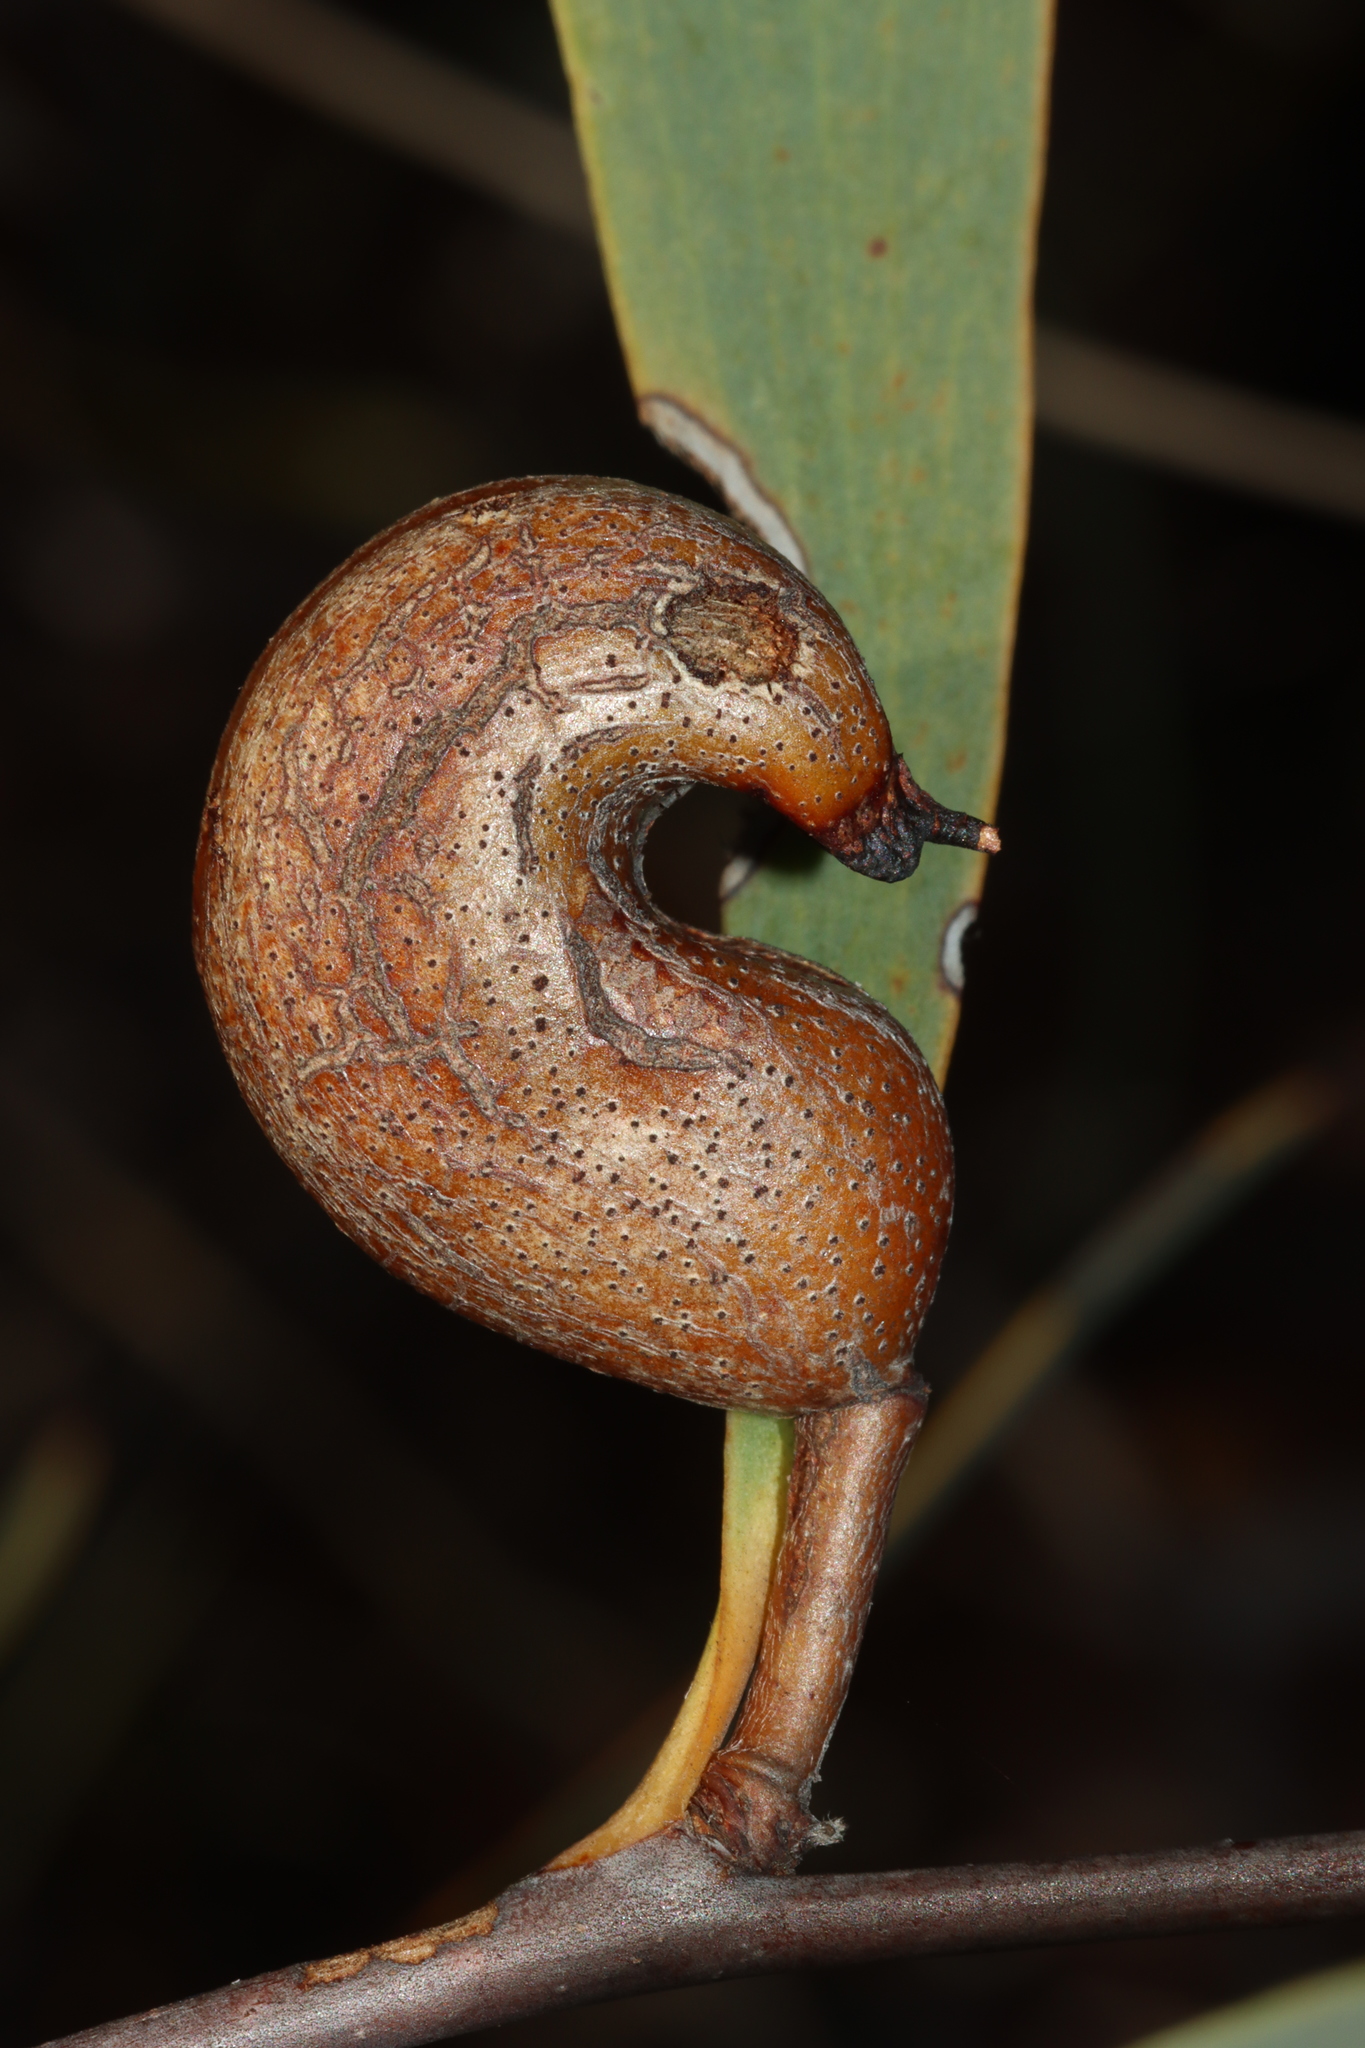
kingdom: Plantae
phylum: Tracheophyta
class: Magnoliopsida
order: Proteales
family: Proteaceae
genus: Hakea
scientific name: Hakea cyclocarpa
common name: Curved-fruit hakea
